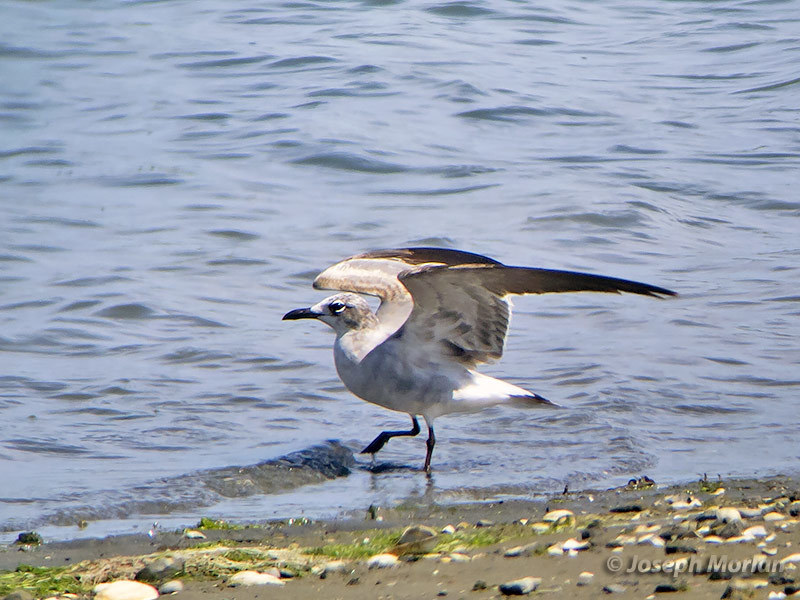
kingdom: Animalia
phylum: Chordata
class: Aves
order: Charadriiformes
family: Laridae
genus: Leucophaeus
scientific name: Leucophaeus atricilla
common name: Laughing gull
